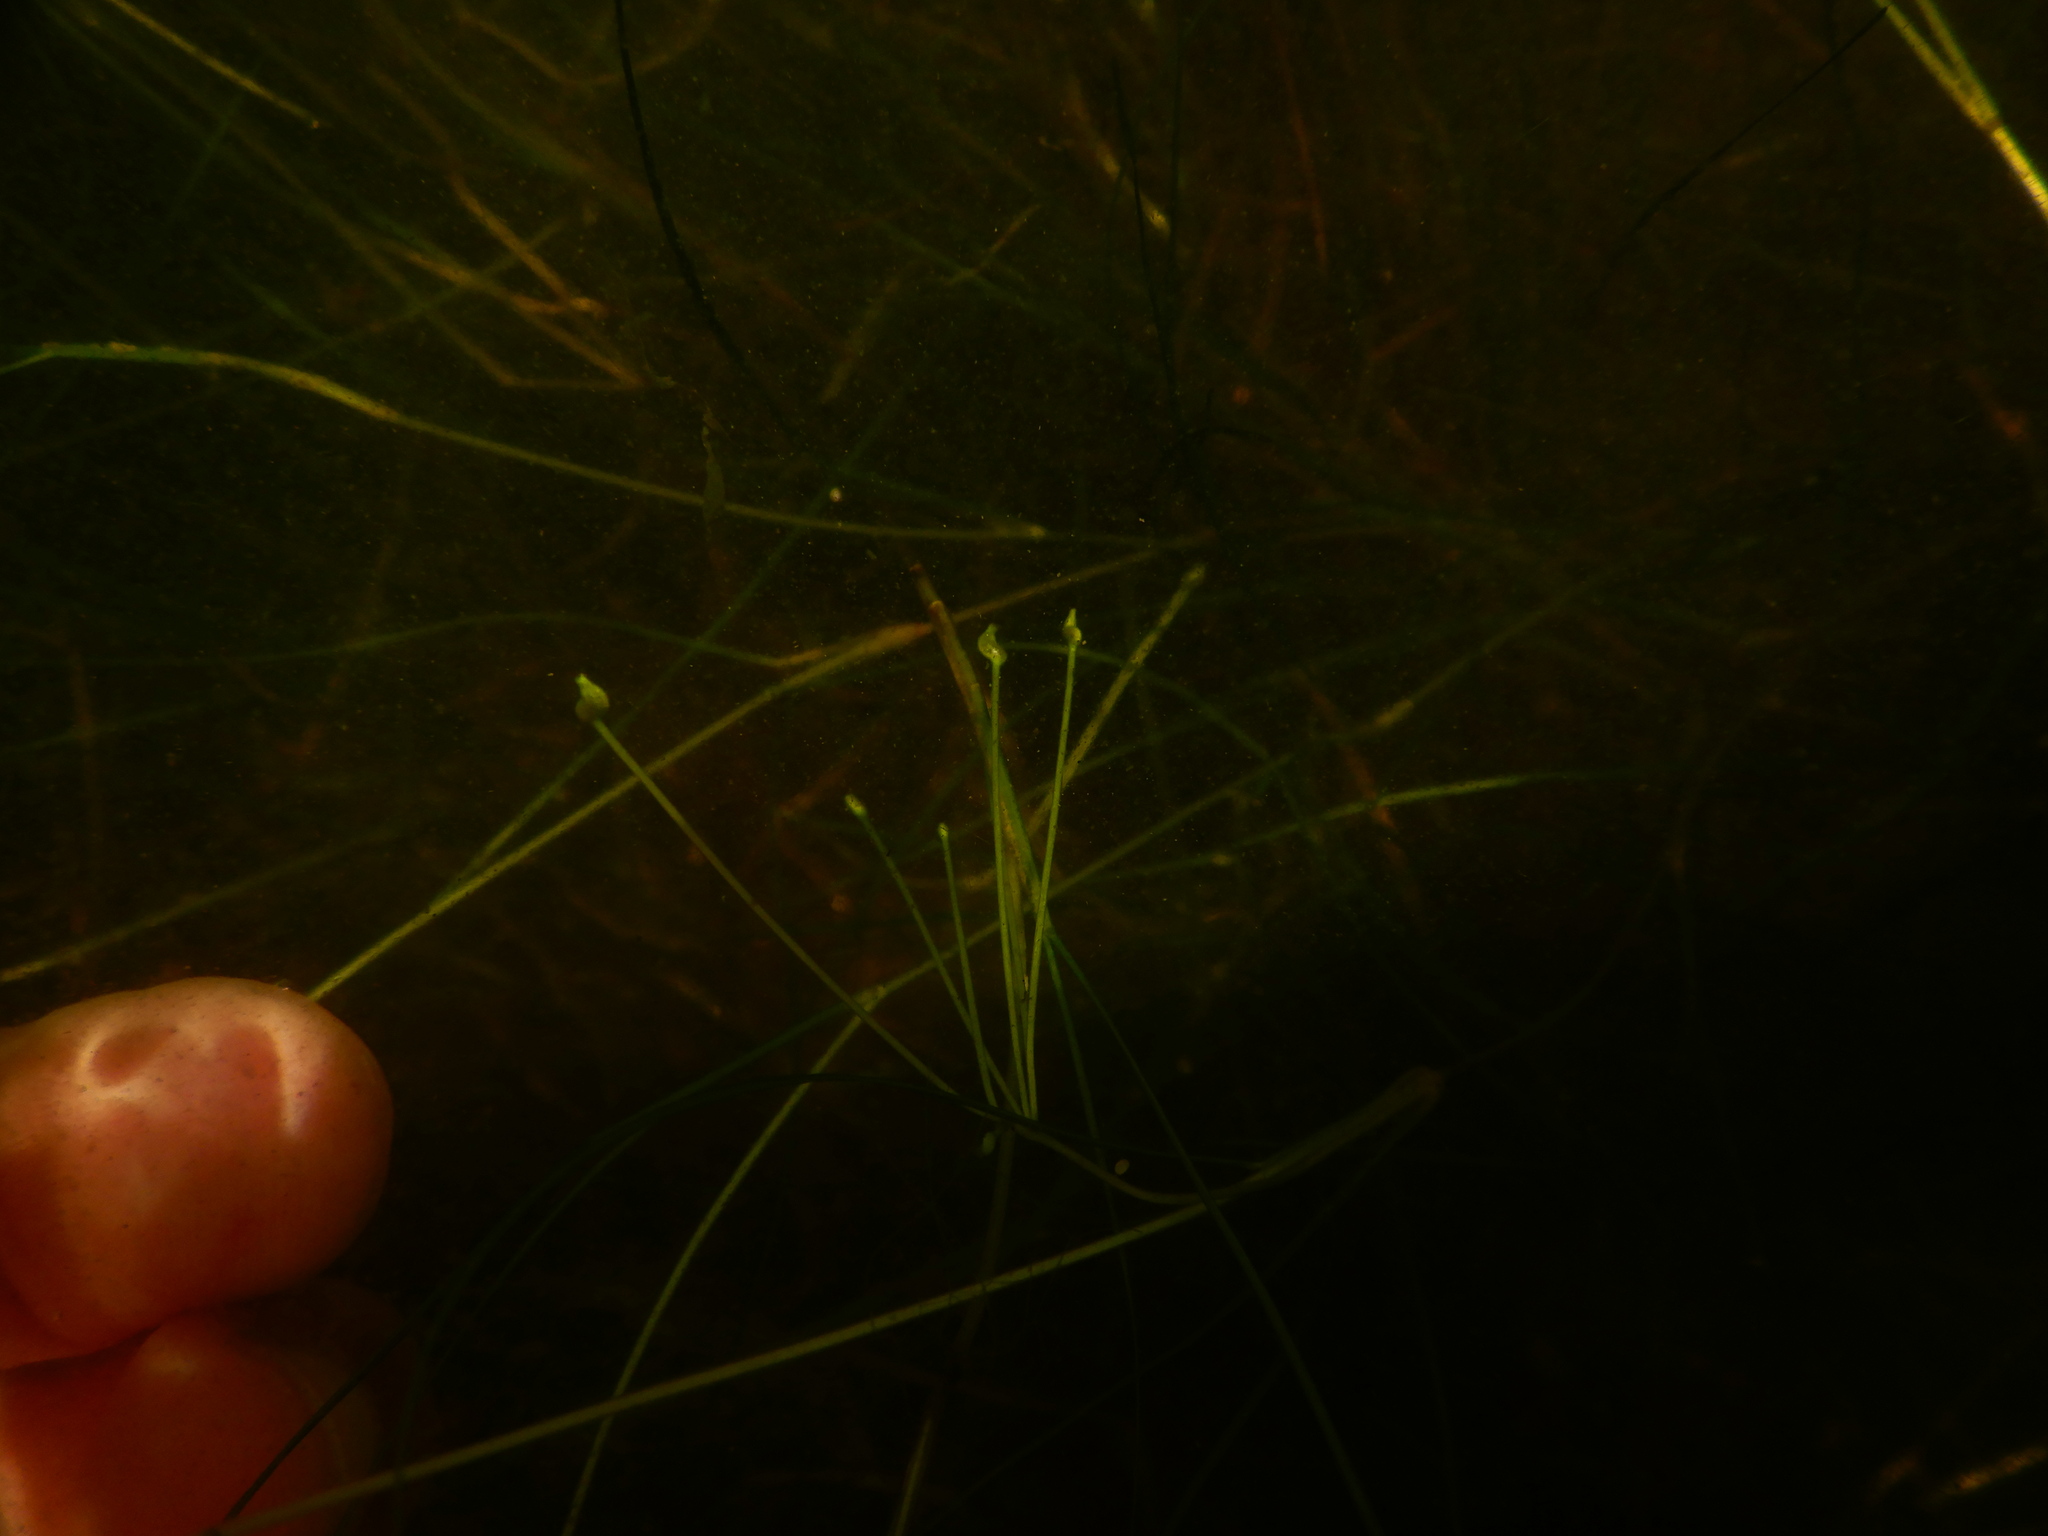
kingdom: Plantae
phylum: Tracheophyta
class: Liliopsida
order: Alismatales
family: Ruppiaceae
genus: Ruppia
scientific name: Ruppia maritima
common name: Beaked tasselweed
